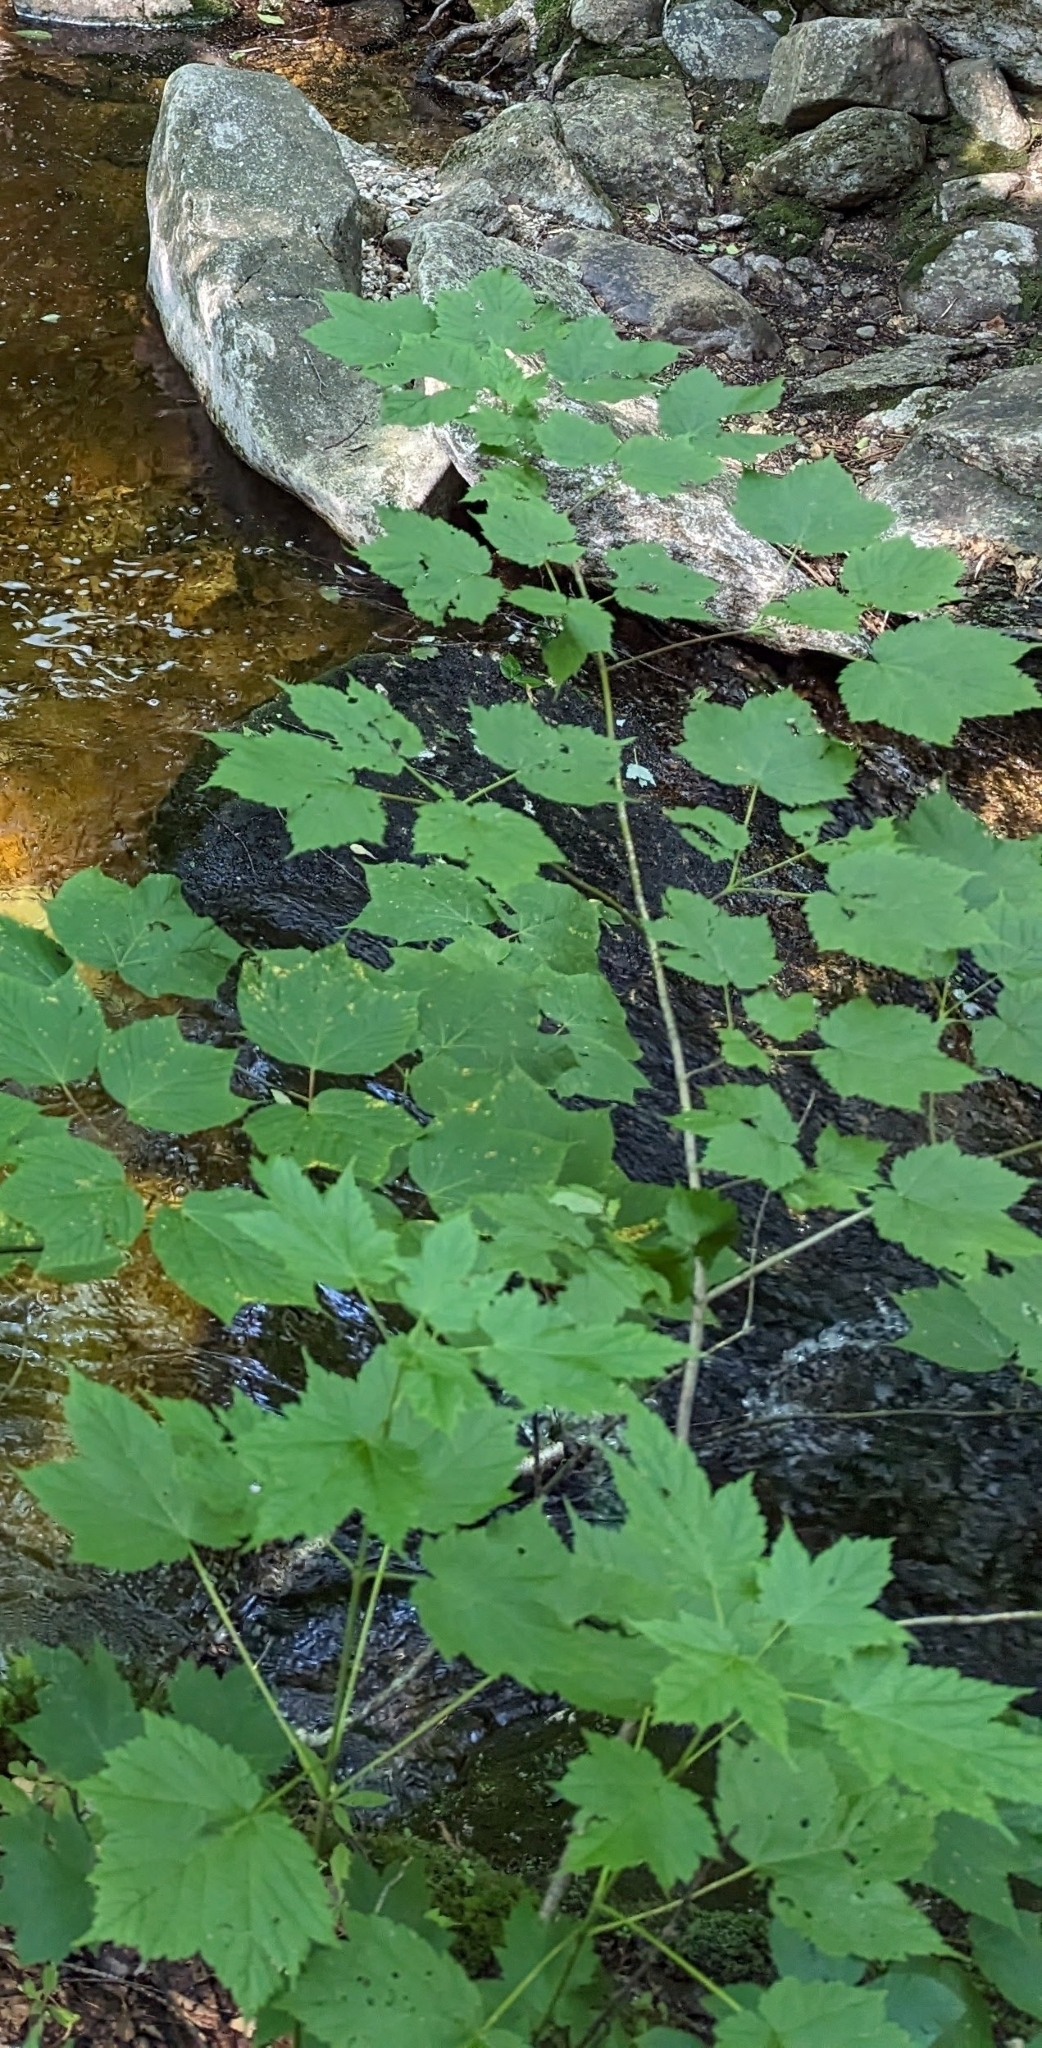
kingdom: Plantae
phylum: Tracheophyta
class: Magnoliopsida
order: Sapindales
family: Sapindaceae
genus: Acer
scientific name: Acer spicatum
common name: Mountain maple
